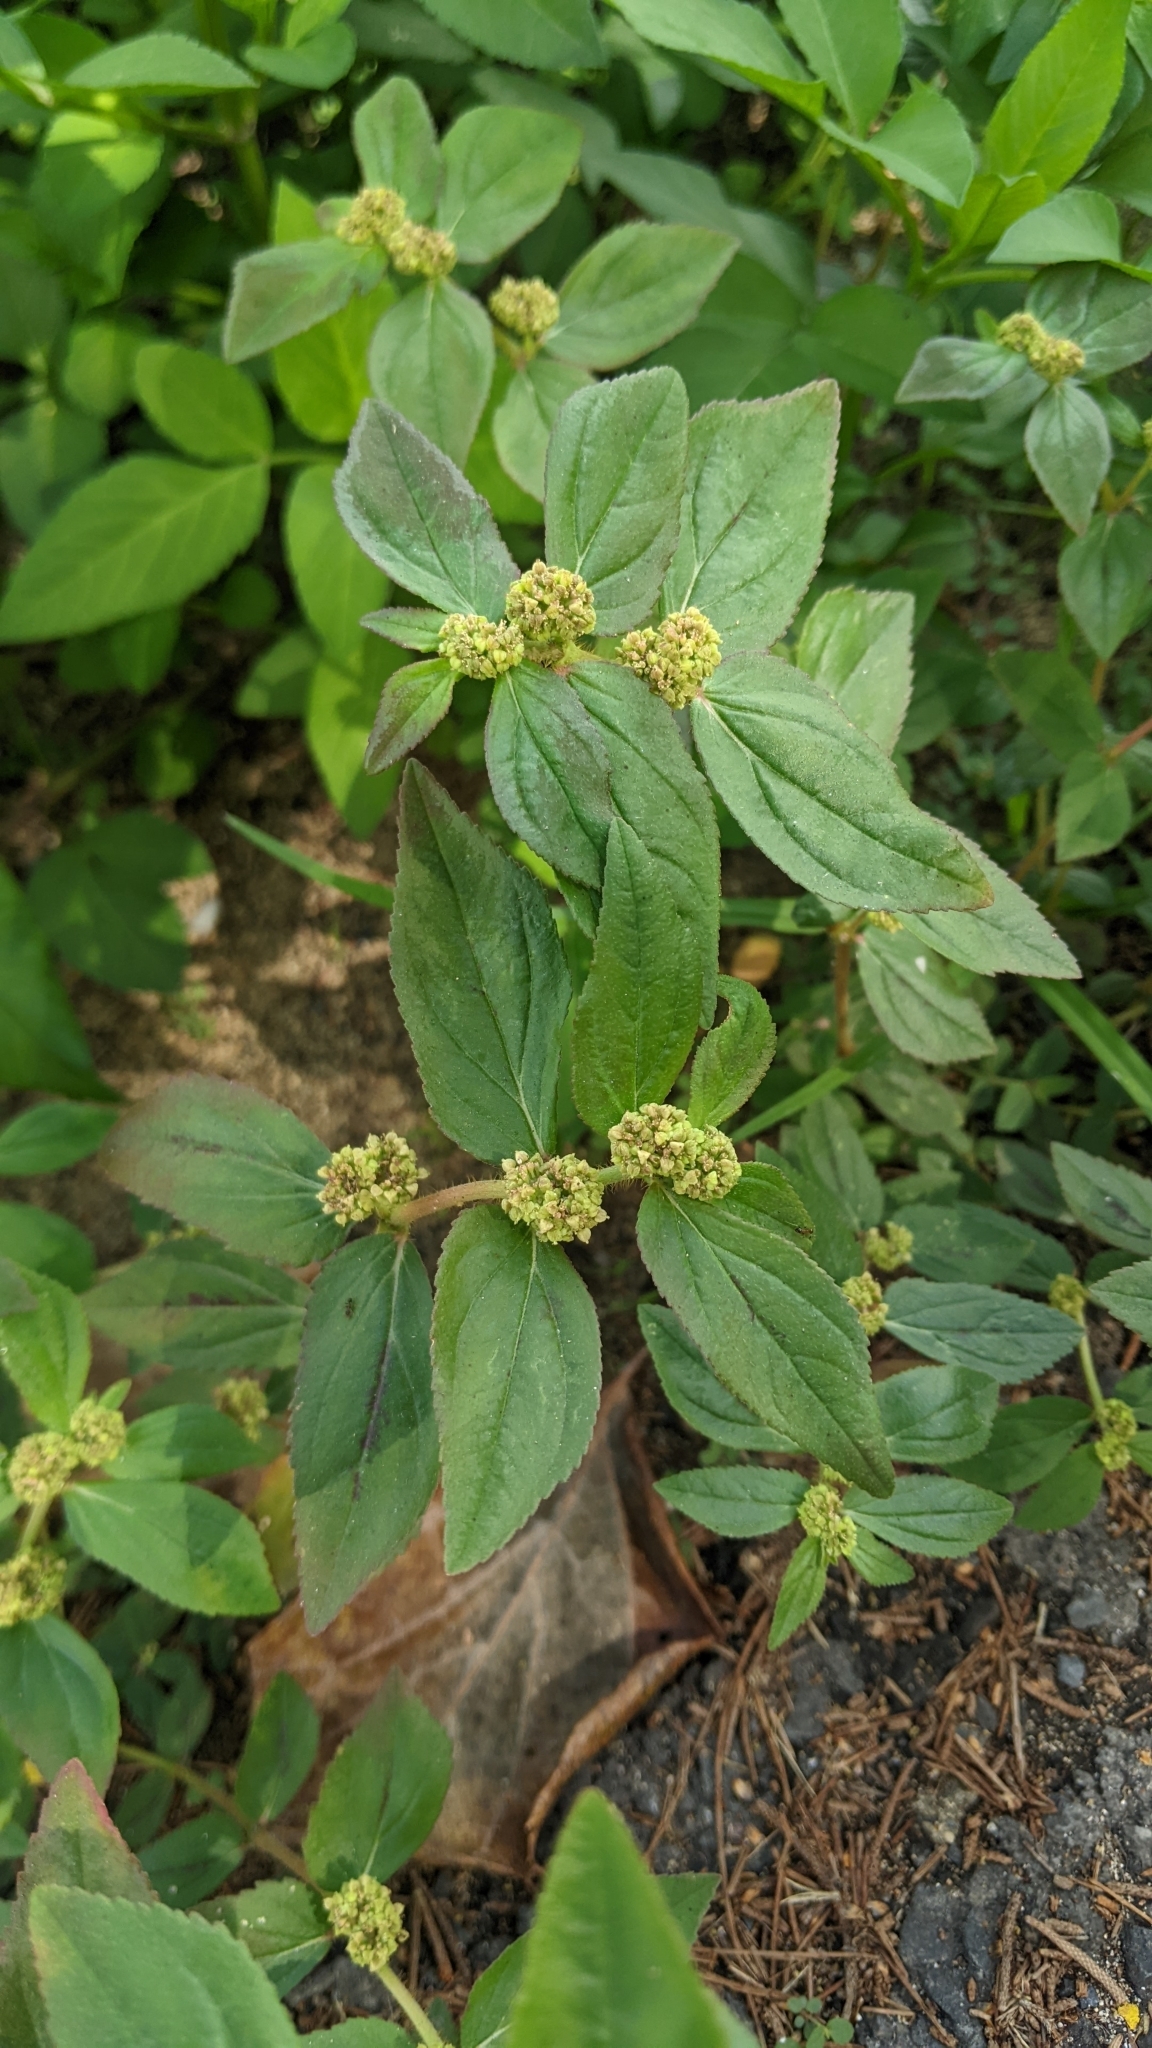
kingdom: Plantae
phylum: Tracheophyta
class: Magnoliopsida
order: Malpighiales
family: Euphorbiaceae
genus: Euphorbia
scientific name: Euphorbia hirta
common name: Pillpod sandmat
